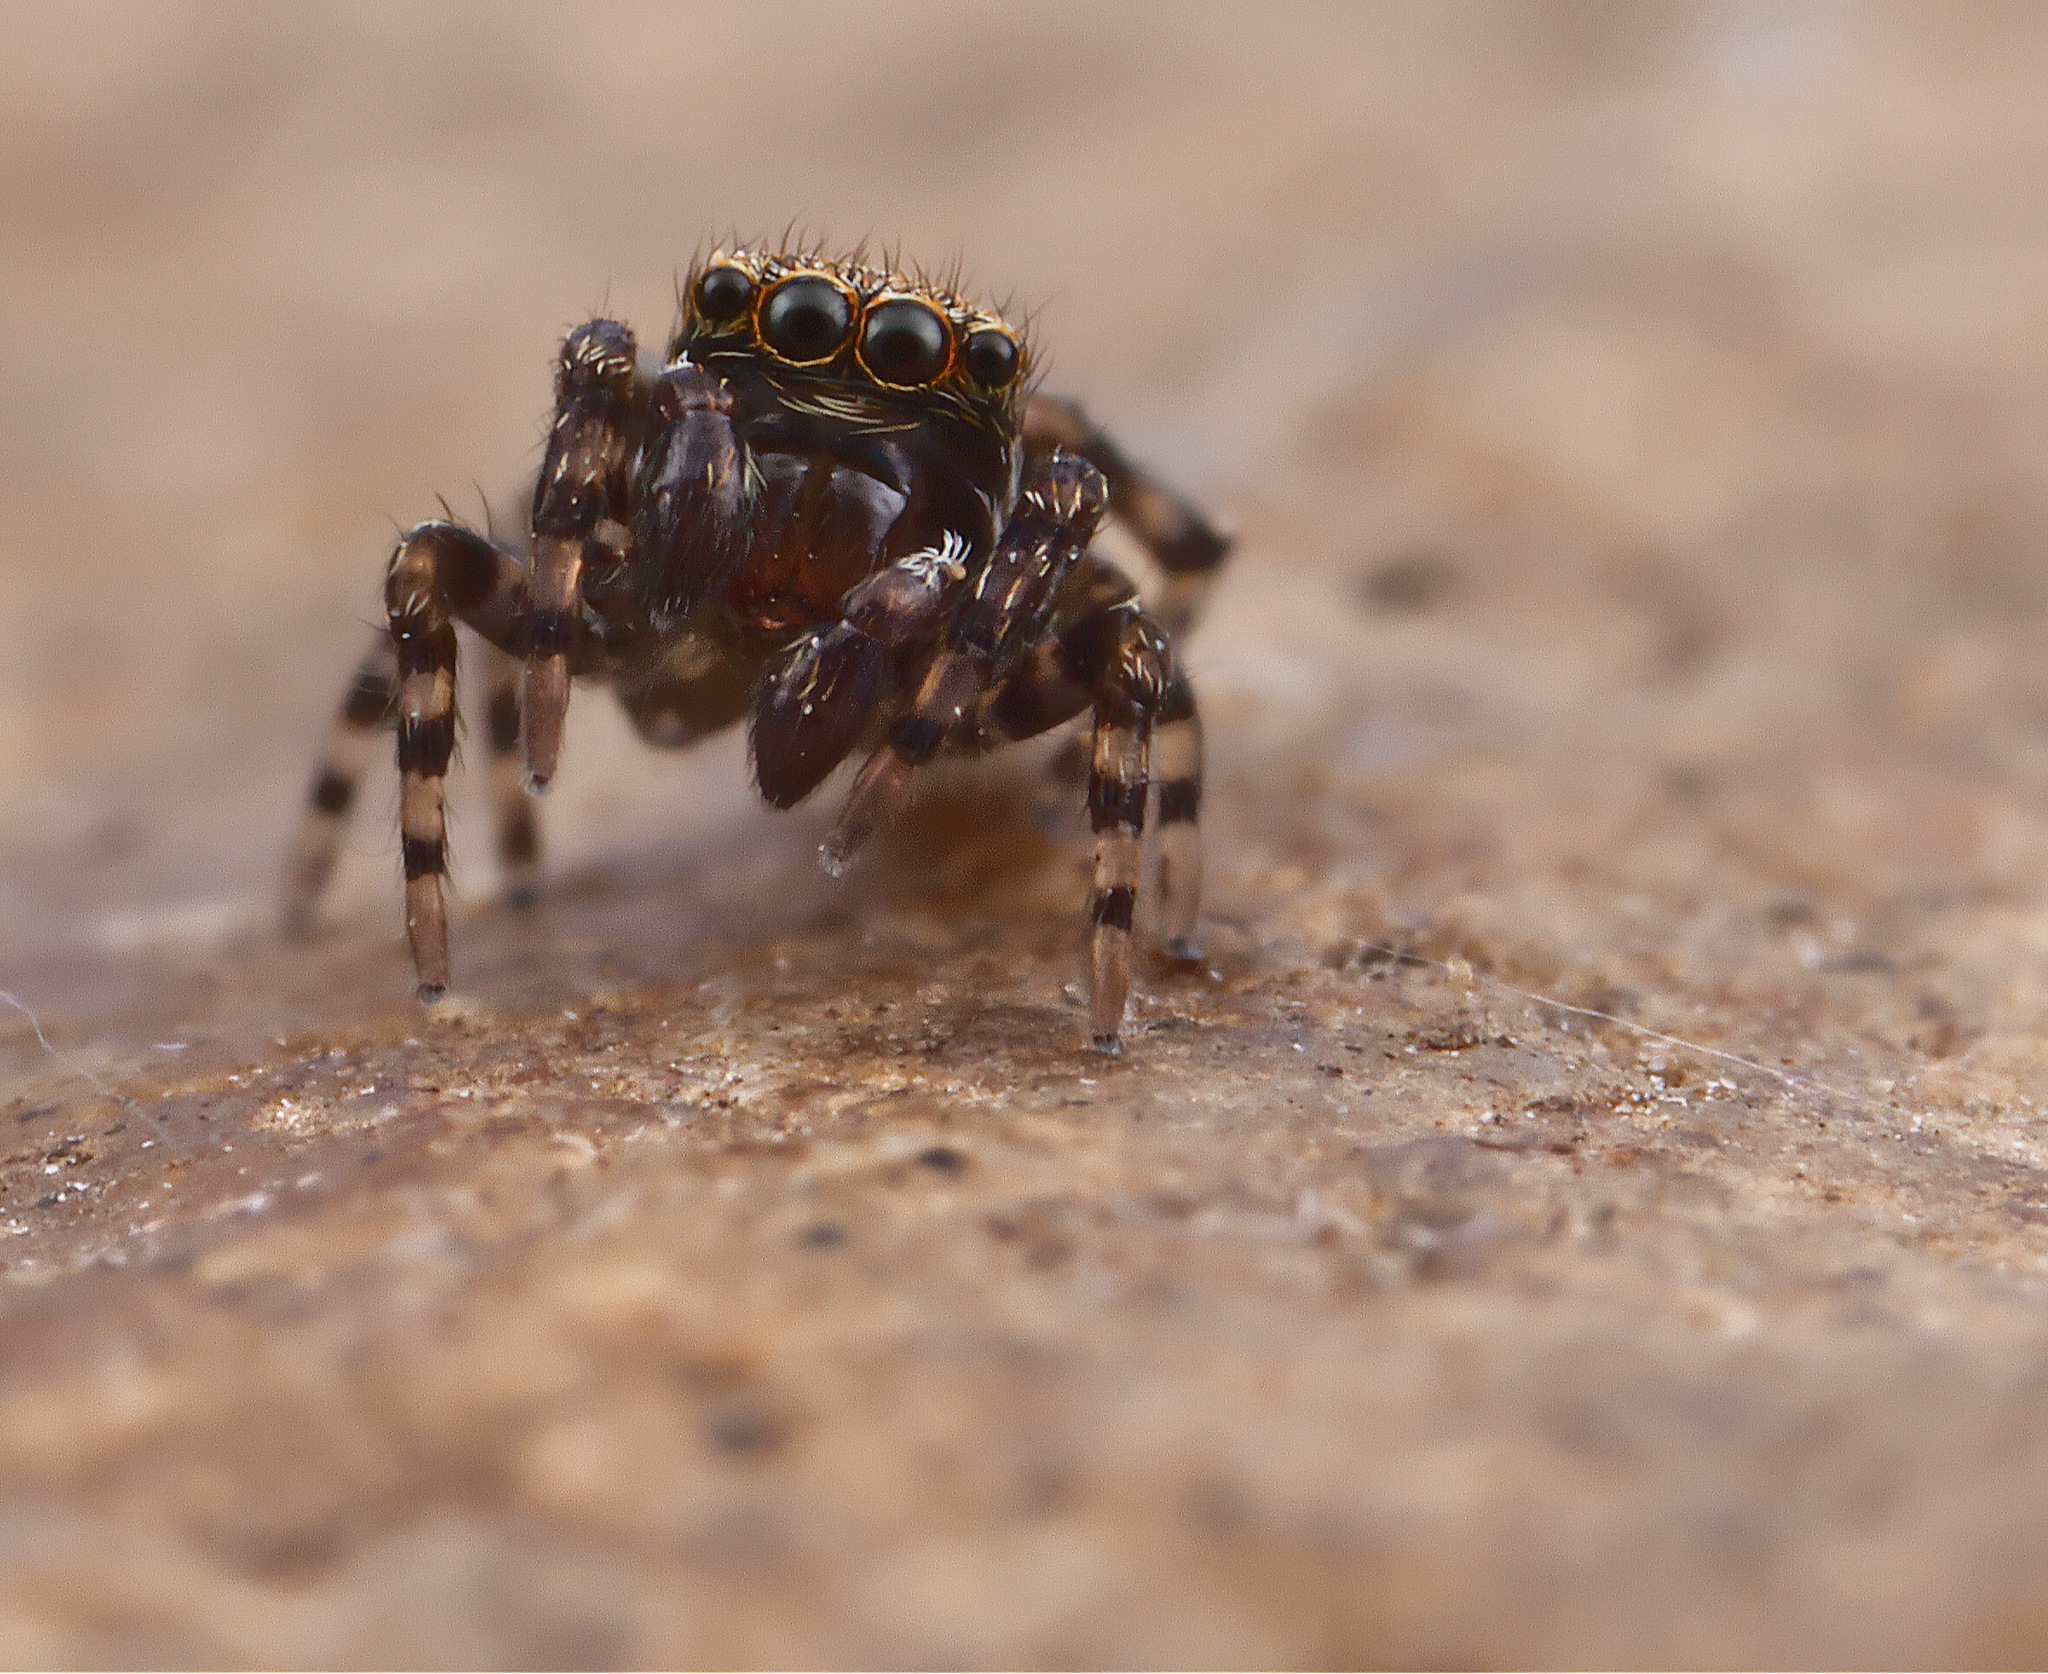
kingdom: Animalia
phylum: Arthropoda
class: Arachnida
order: Araneae
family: Salticidae
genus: Attinella
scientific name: Attinella concolor
